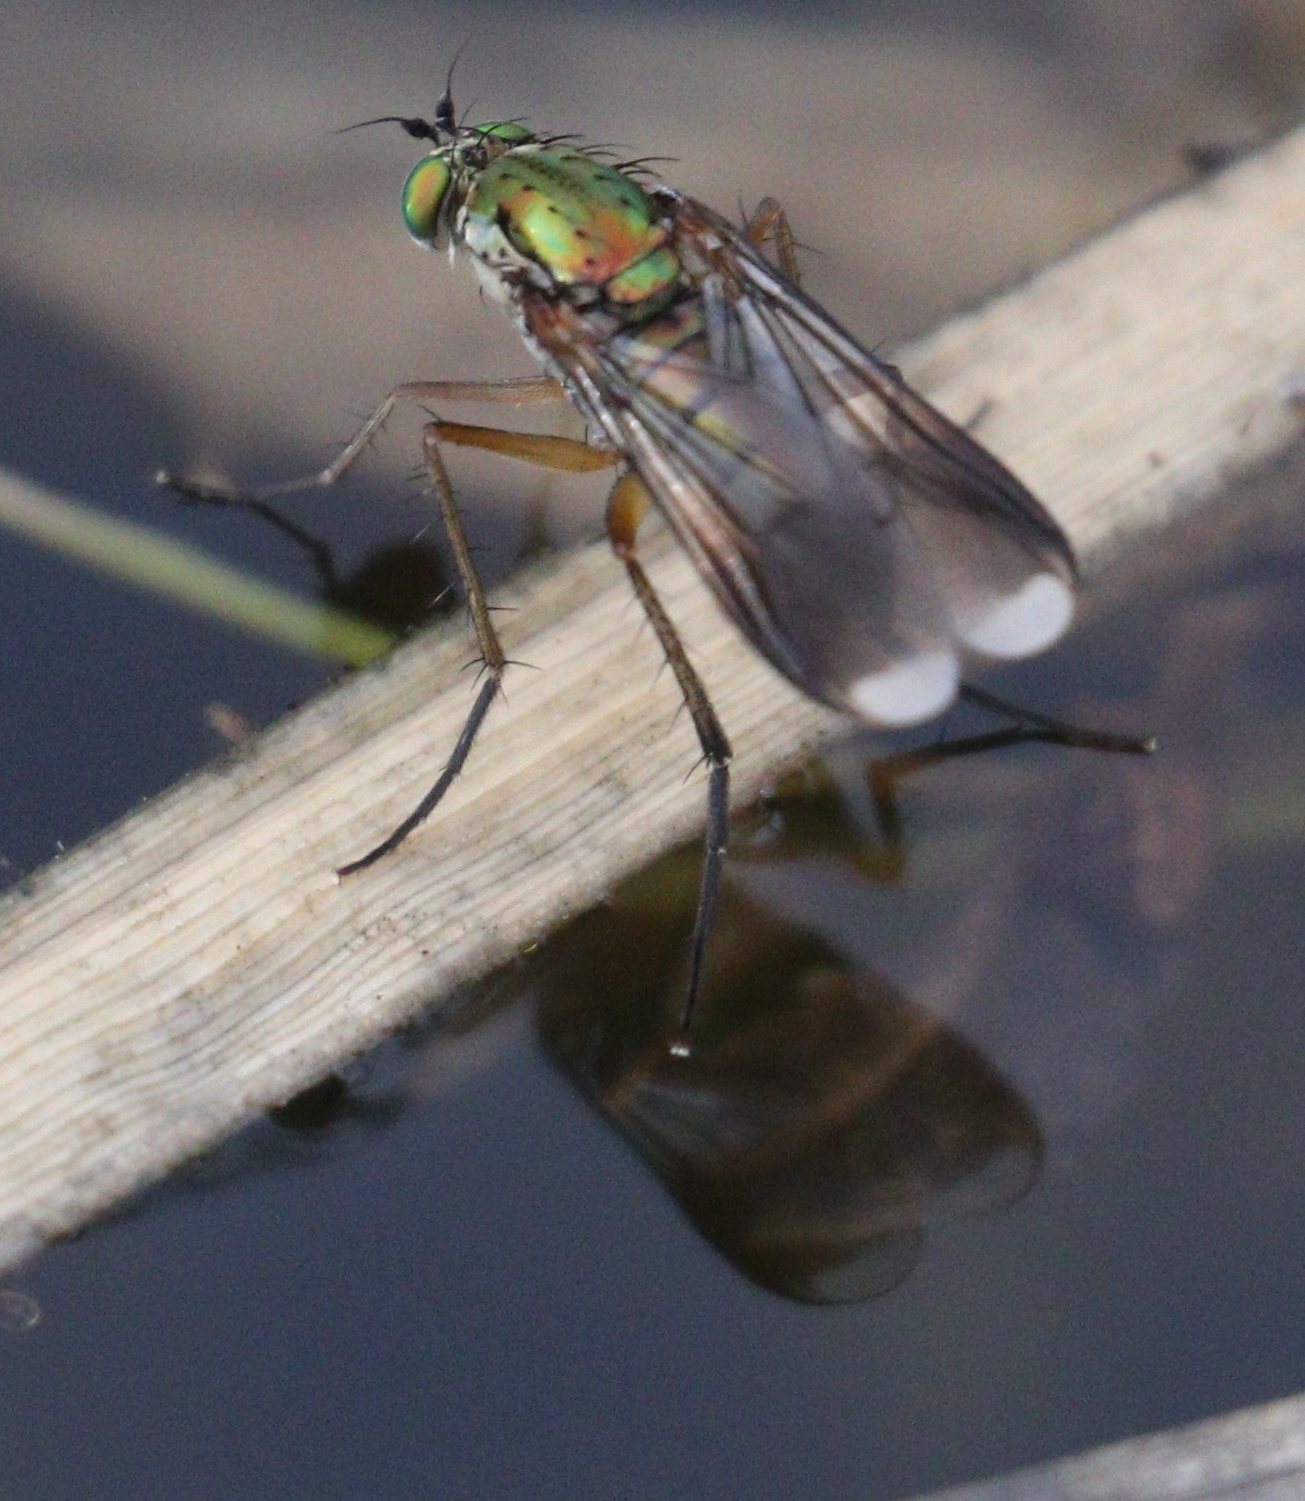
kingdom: Animalia
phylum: Arthropoda
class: Insecta
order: Diptera
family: Dolichopodidae
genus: Poecilobothrus
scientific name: Poecilobothrus nobilitatus
